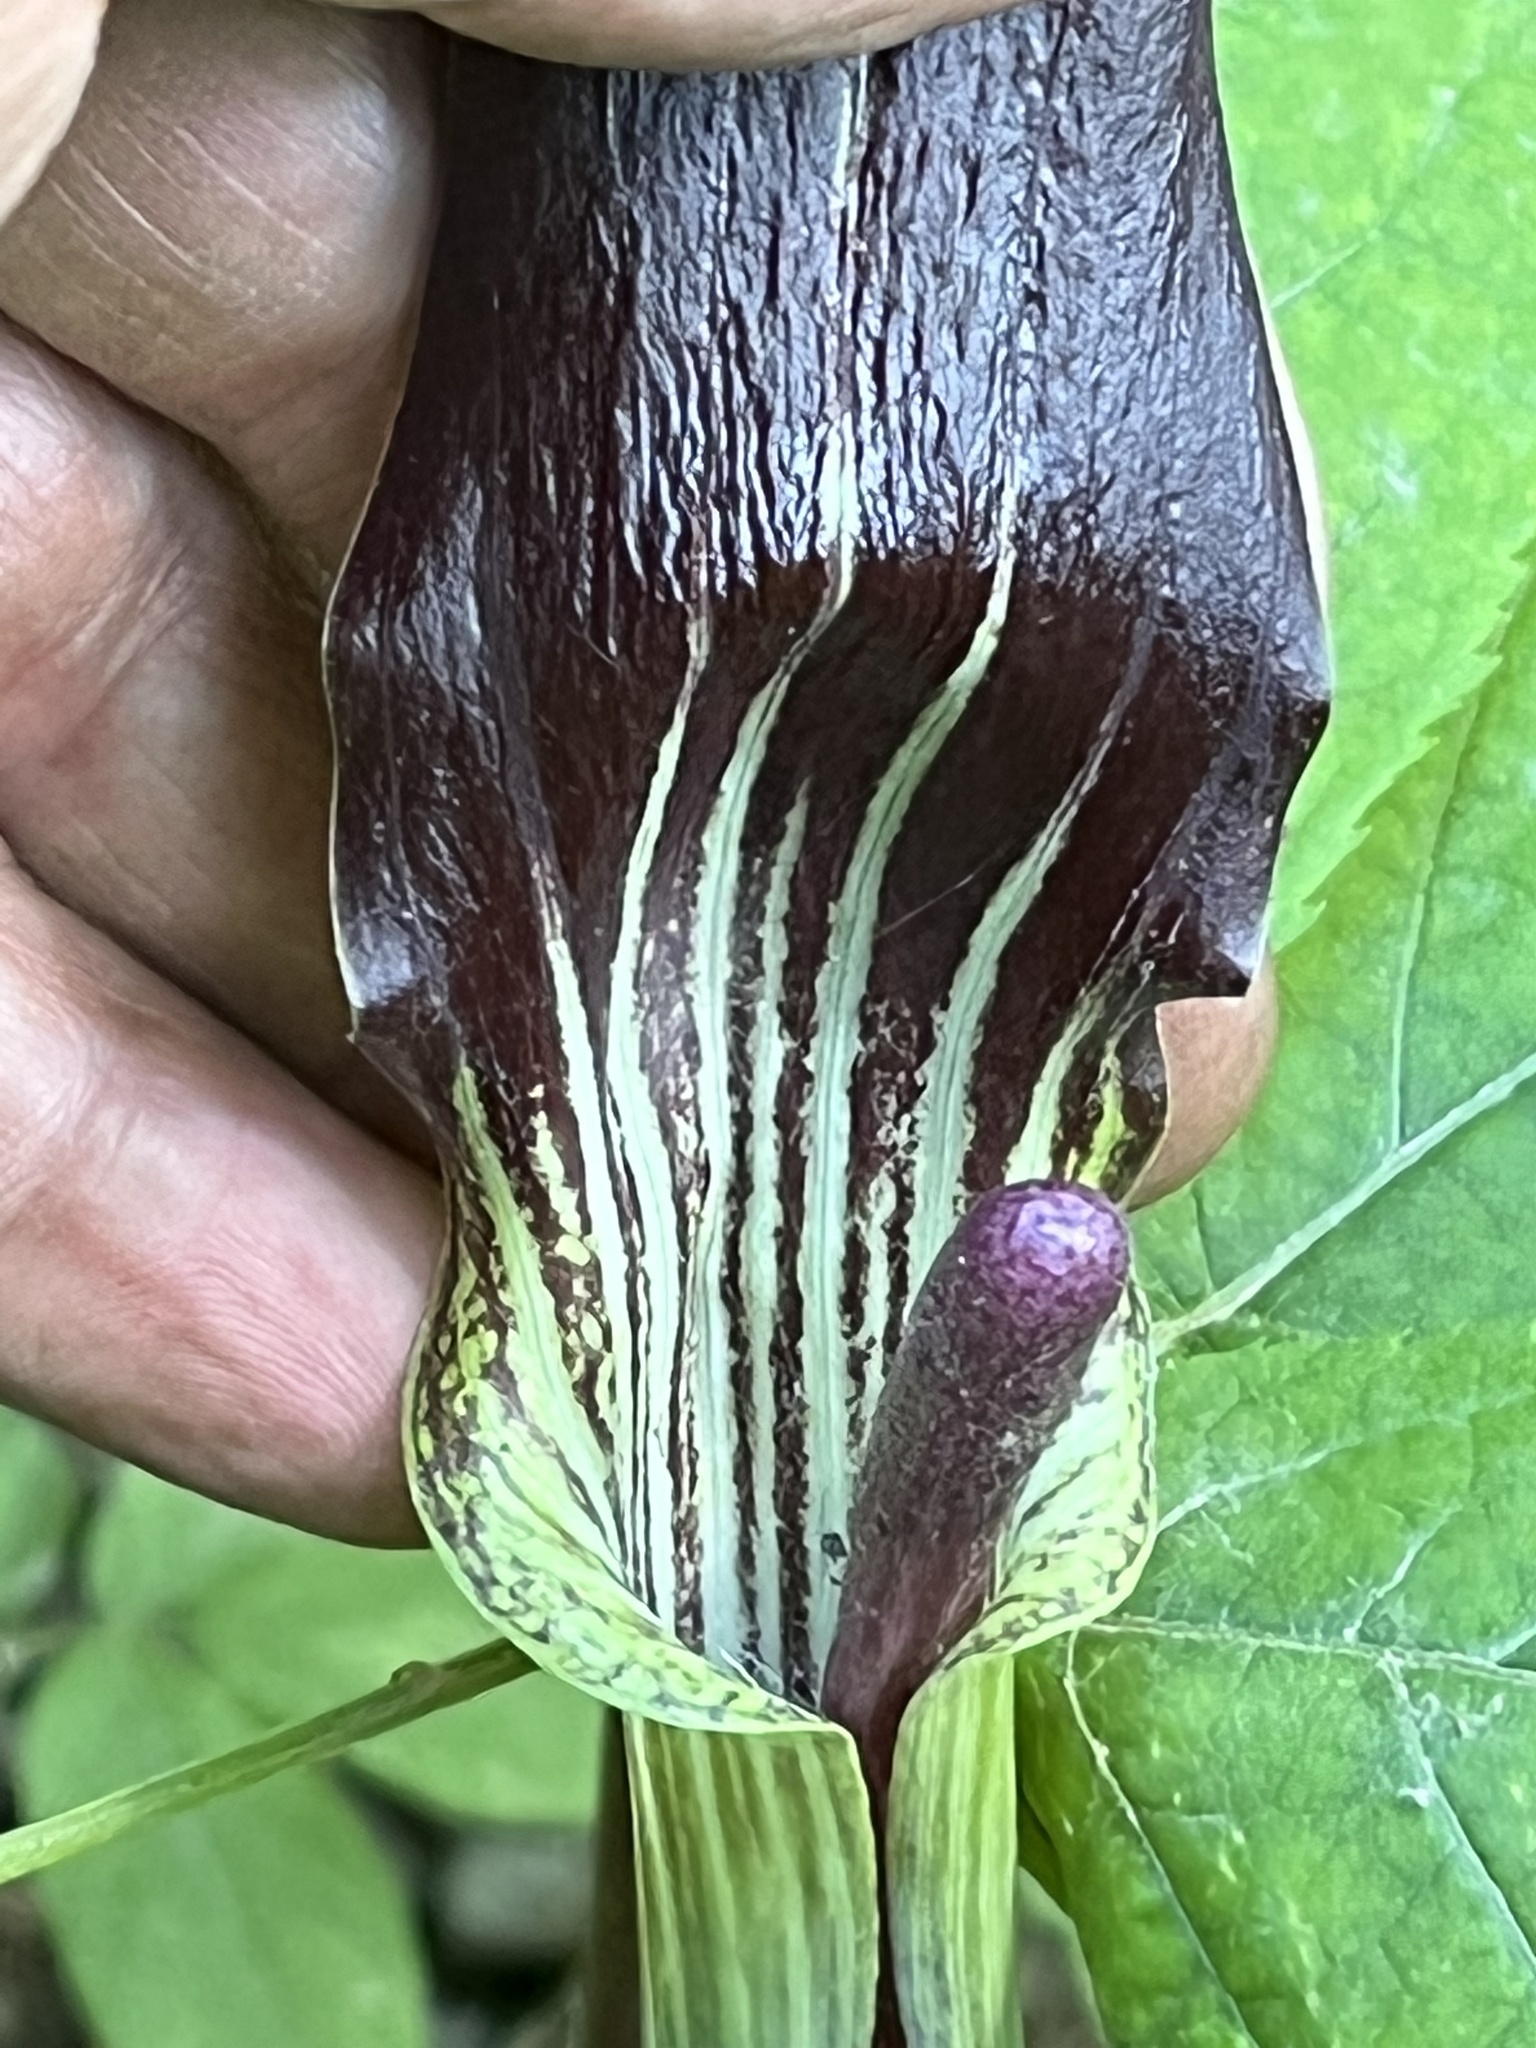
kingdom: Plantae
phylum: Tracheophyta
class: Liliopsida
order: Alismatales
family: Araceae
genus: Arisaema
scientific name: Arisaema triphyllum
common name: Jack-in-the-pulpit
